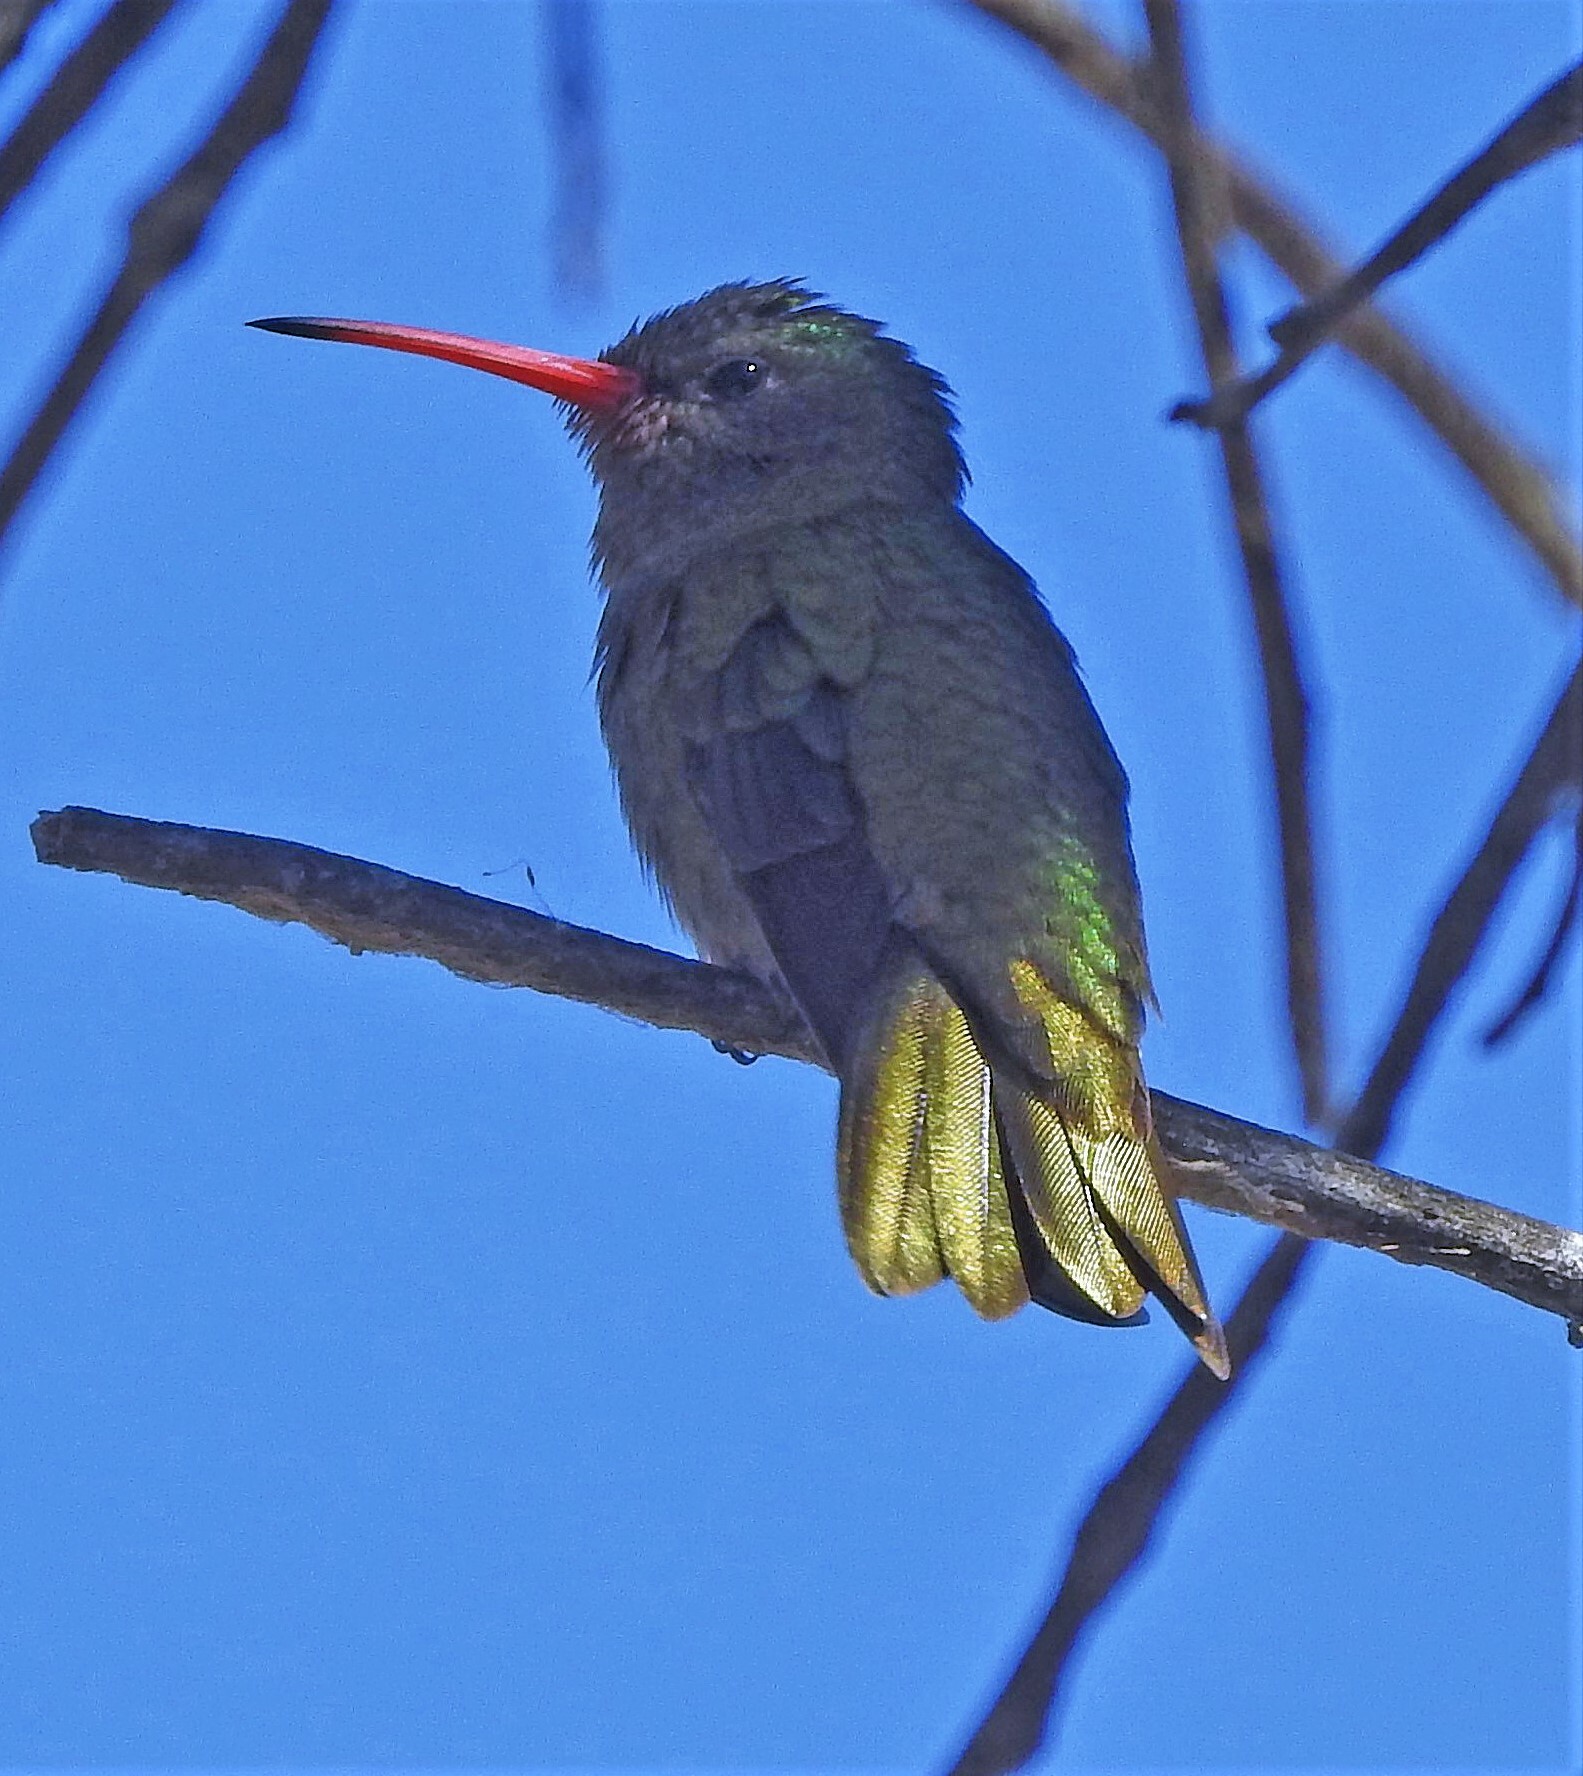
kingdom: Animalia
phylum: Chordata
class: Aves
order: Apodiformes
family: Trochilidae
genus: Hylocharis
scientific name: Hylocharis chrysura
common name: Gilded sapphire
